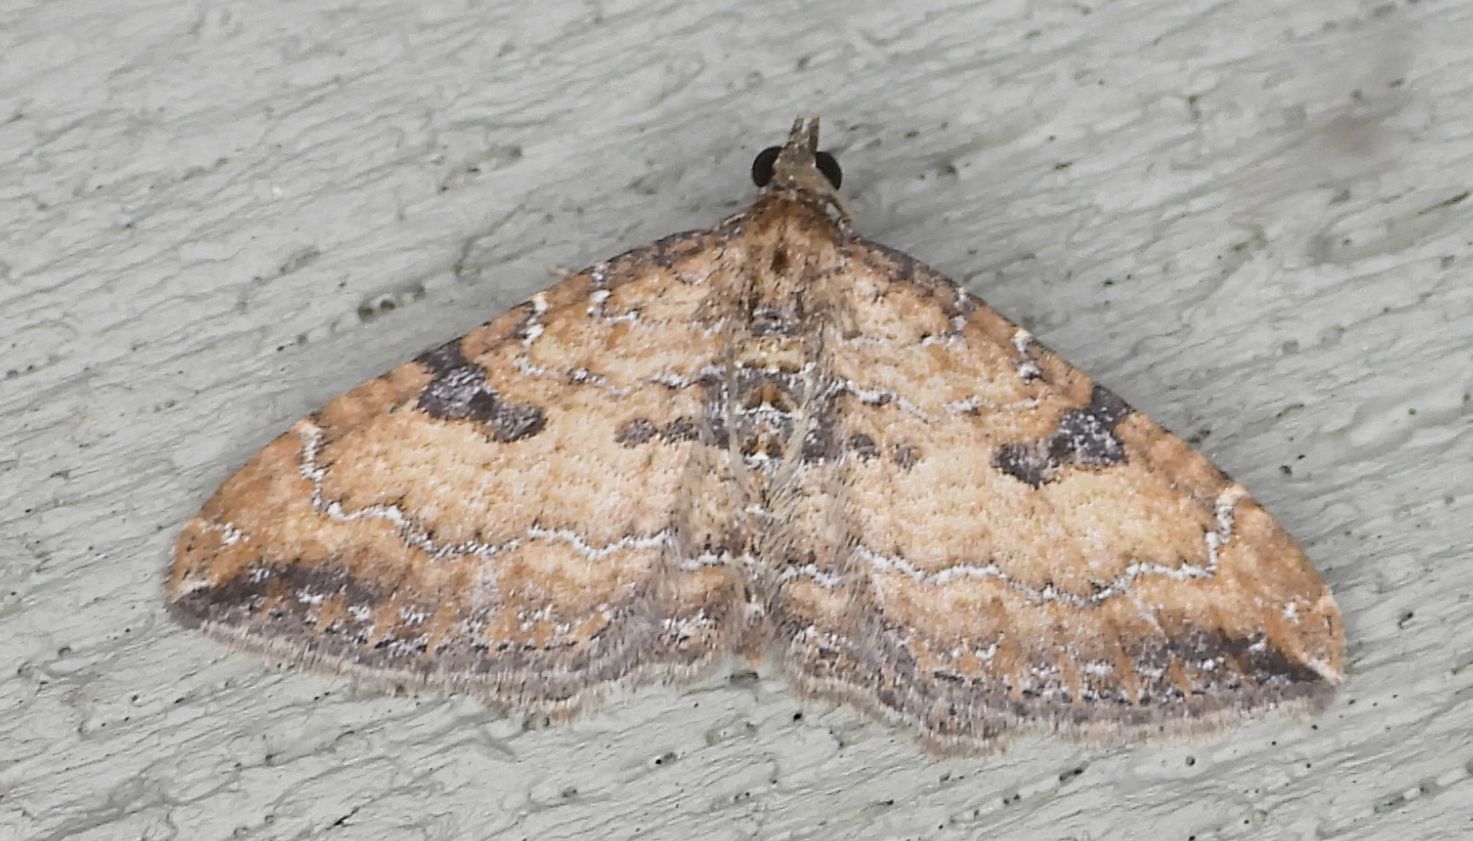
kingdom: Animalia
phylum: Arthropoda
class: Insecta
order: Lepidoptera
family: Geometridae
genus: Orthonama
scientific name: Orthonama obstipata
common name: The gem
